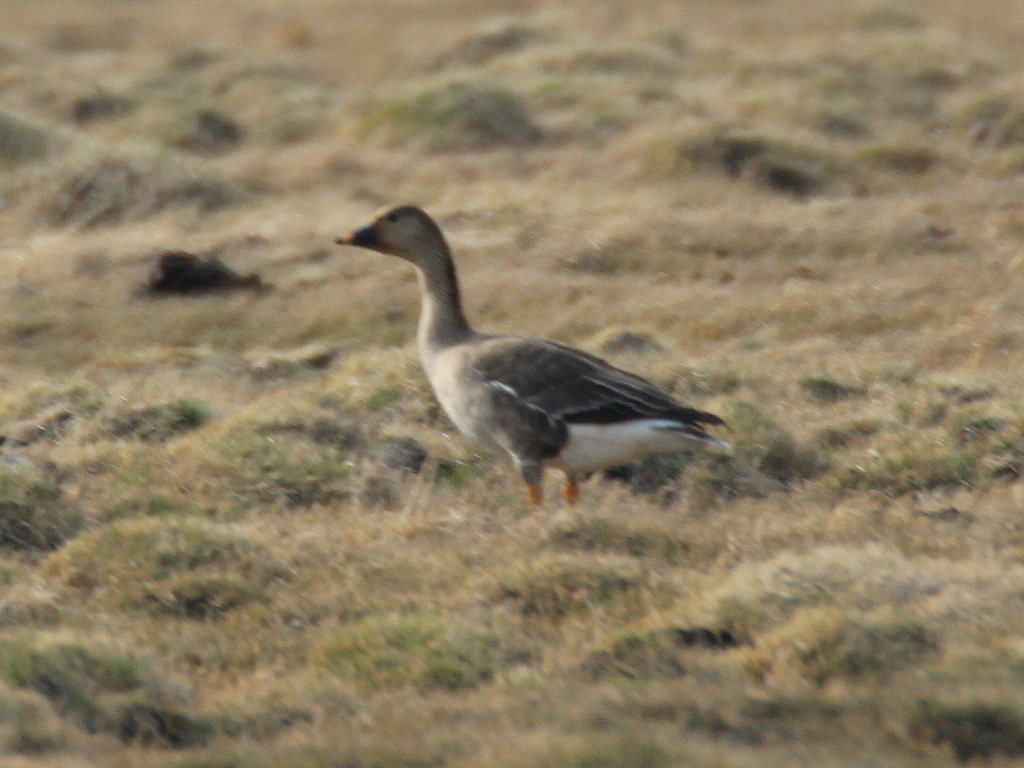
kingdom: Animalia
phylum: Chordata
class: Aves
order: Anseriformes
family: Anatidae
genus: Anser
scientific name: Anser serrirostris
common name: Tundra bean goose
